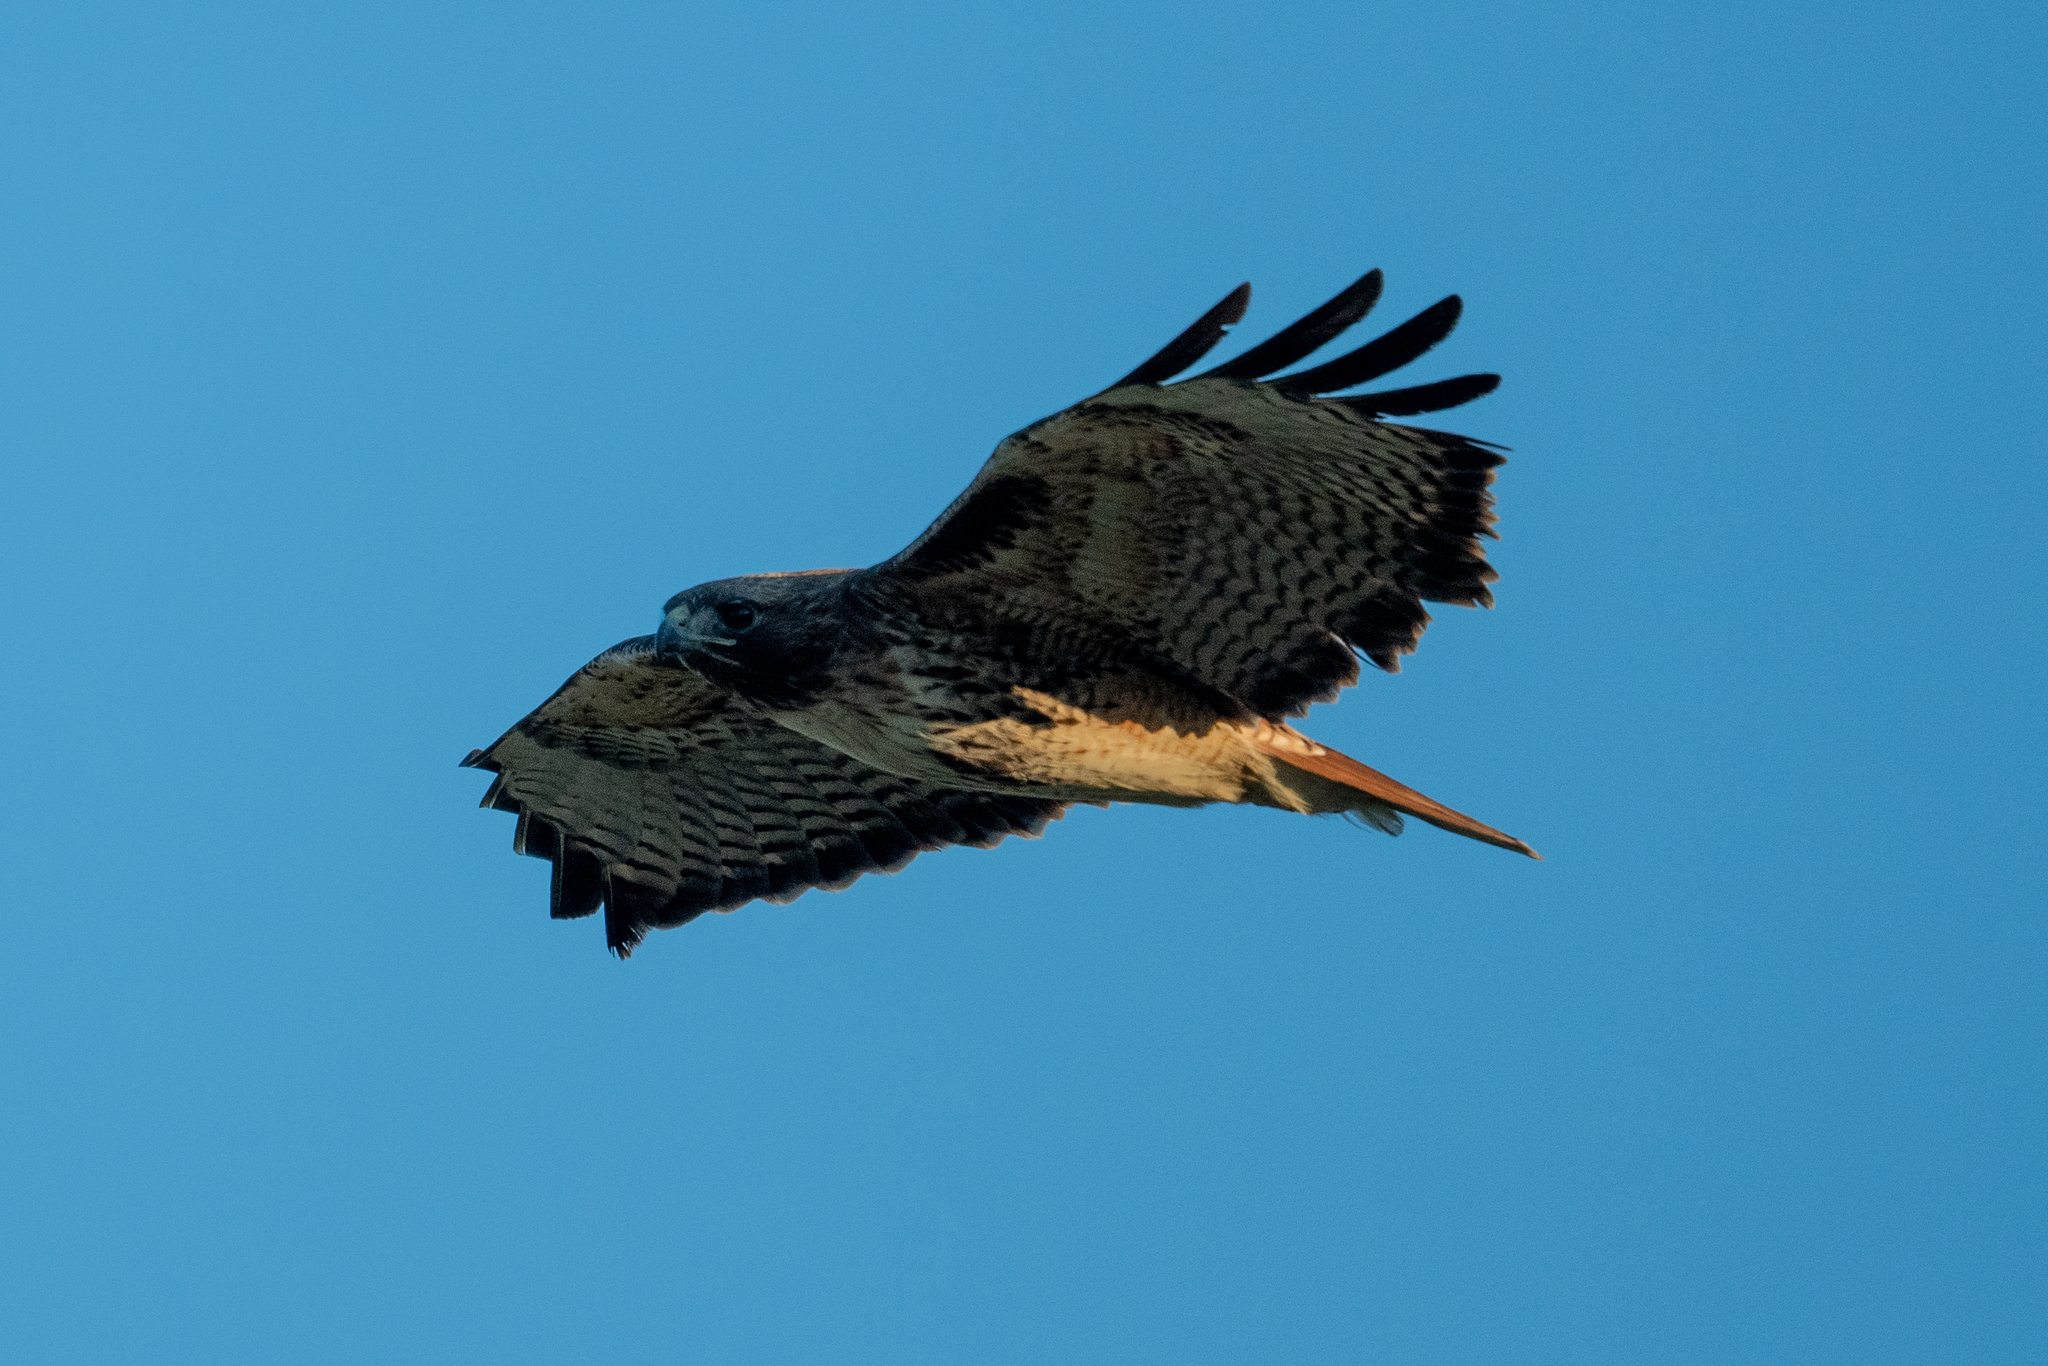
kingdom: Animalia
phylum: Chordata
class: Aves
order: Accipitriformes
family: Accipitridae
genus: Buteo
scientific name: Buteo jamaicensis
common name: Red-tailed hawk
